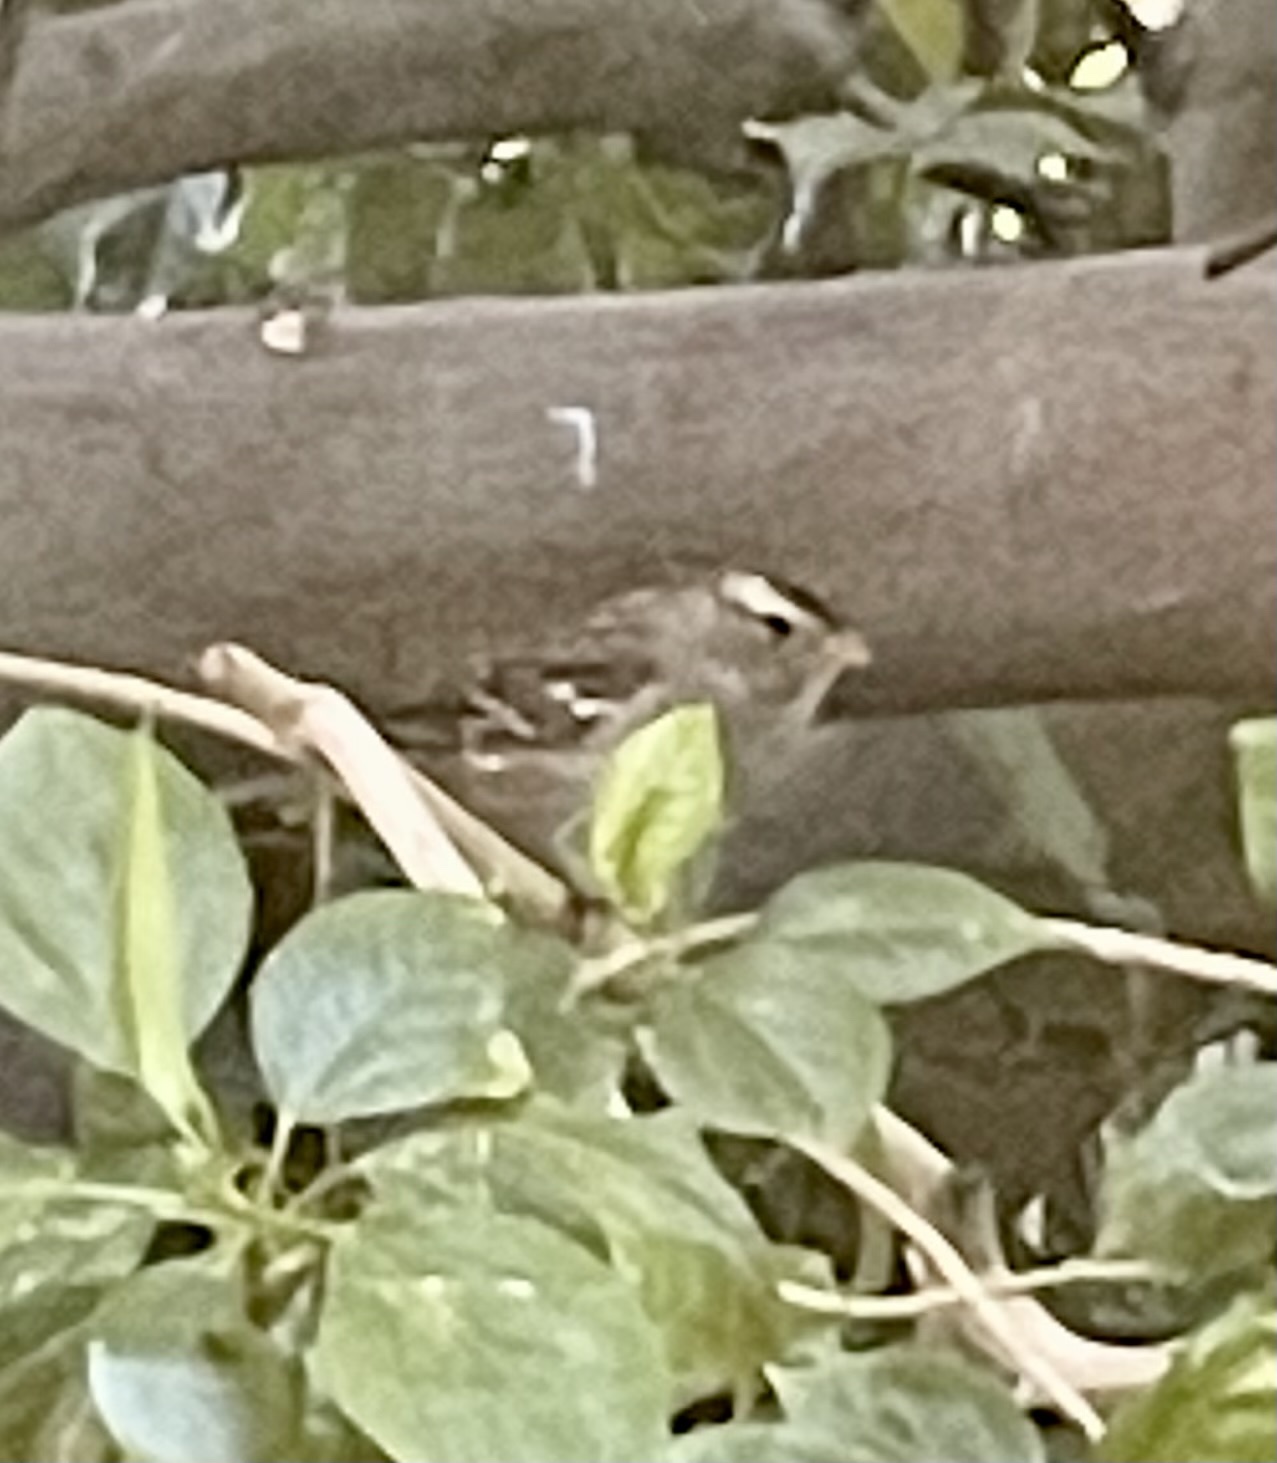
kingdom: Animalia
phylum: Chordata
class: Aves
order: Passeriformes
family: Passerellidae
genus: Zonotrichia
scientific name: Zonotrichia leucophrys
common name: White-crowned sparrow
